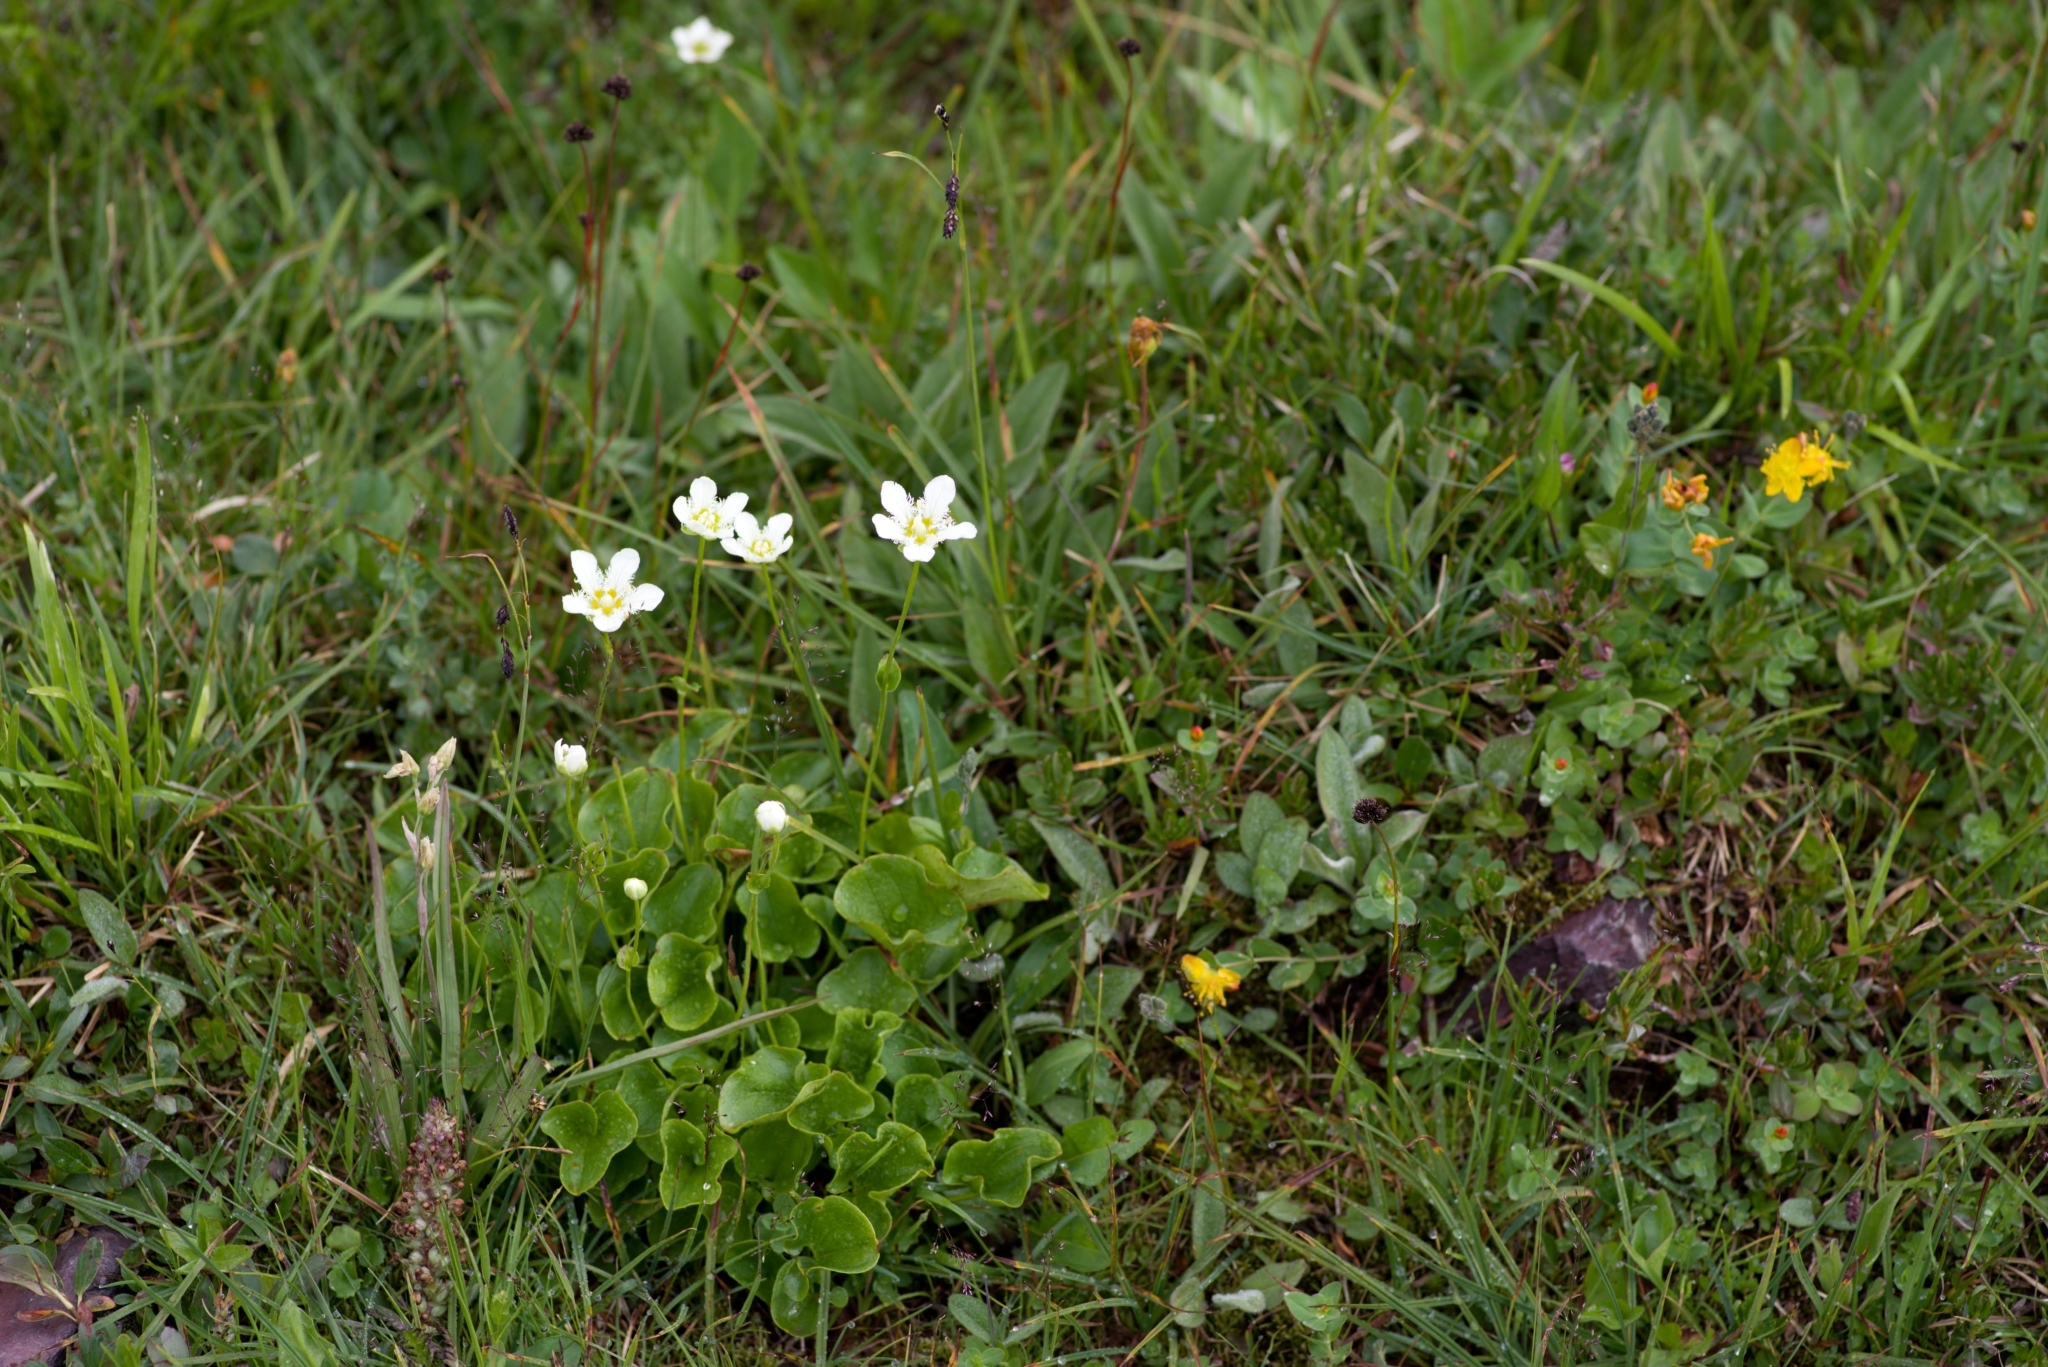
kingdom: Plantae
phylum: Tracheophyta
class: Magnoliopsida
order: Celastrales
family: Parnassiaceae
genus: Parnassia
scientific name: Parnassia fimbriata
